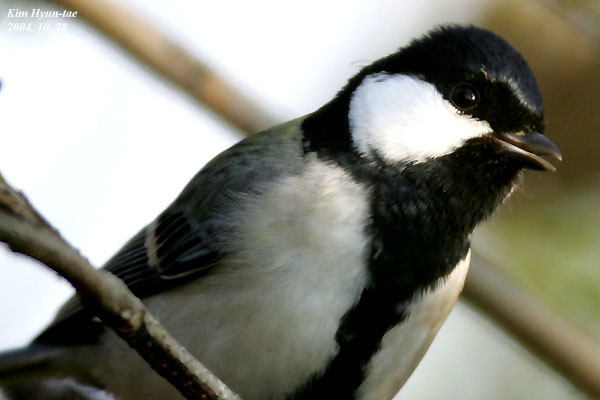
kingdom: Animalia
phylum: Chordata
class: Aves
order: Passeriformes
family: Paridae
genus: Parus
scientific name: Parus minor
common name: Japanese tit
